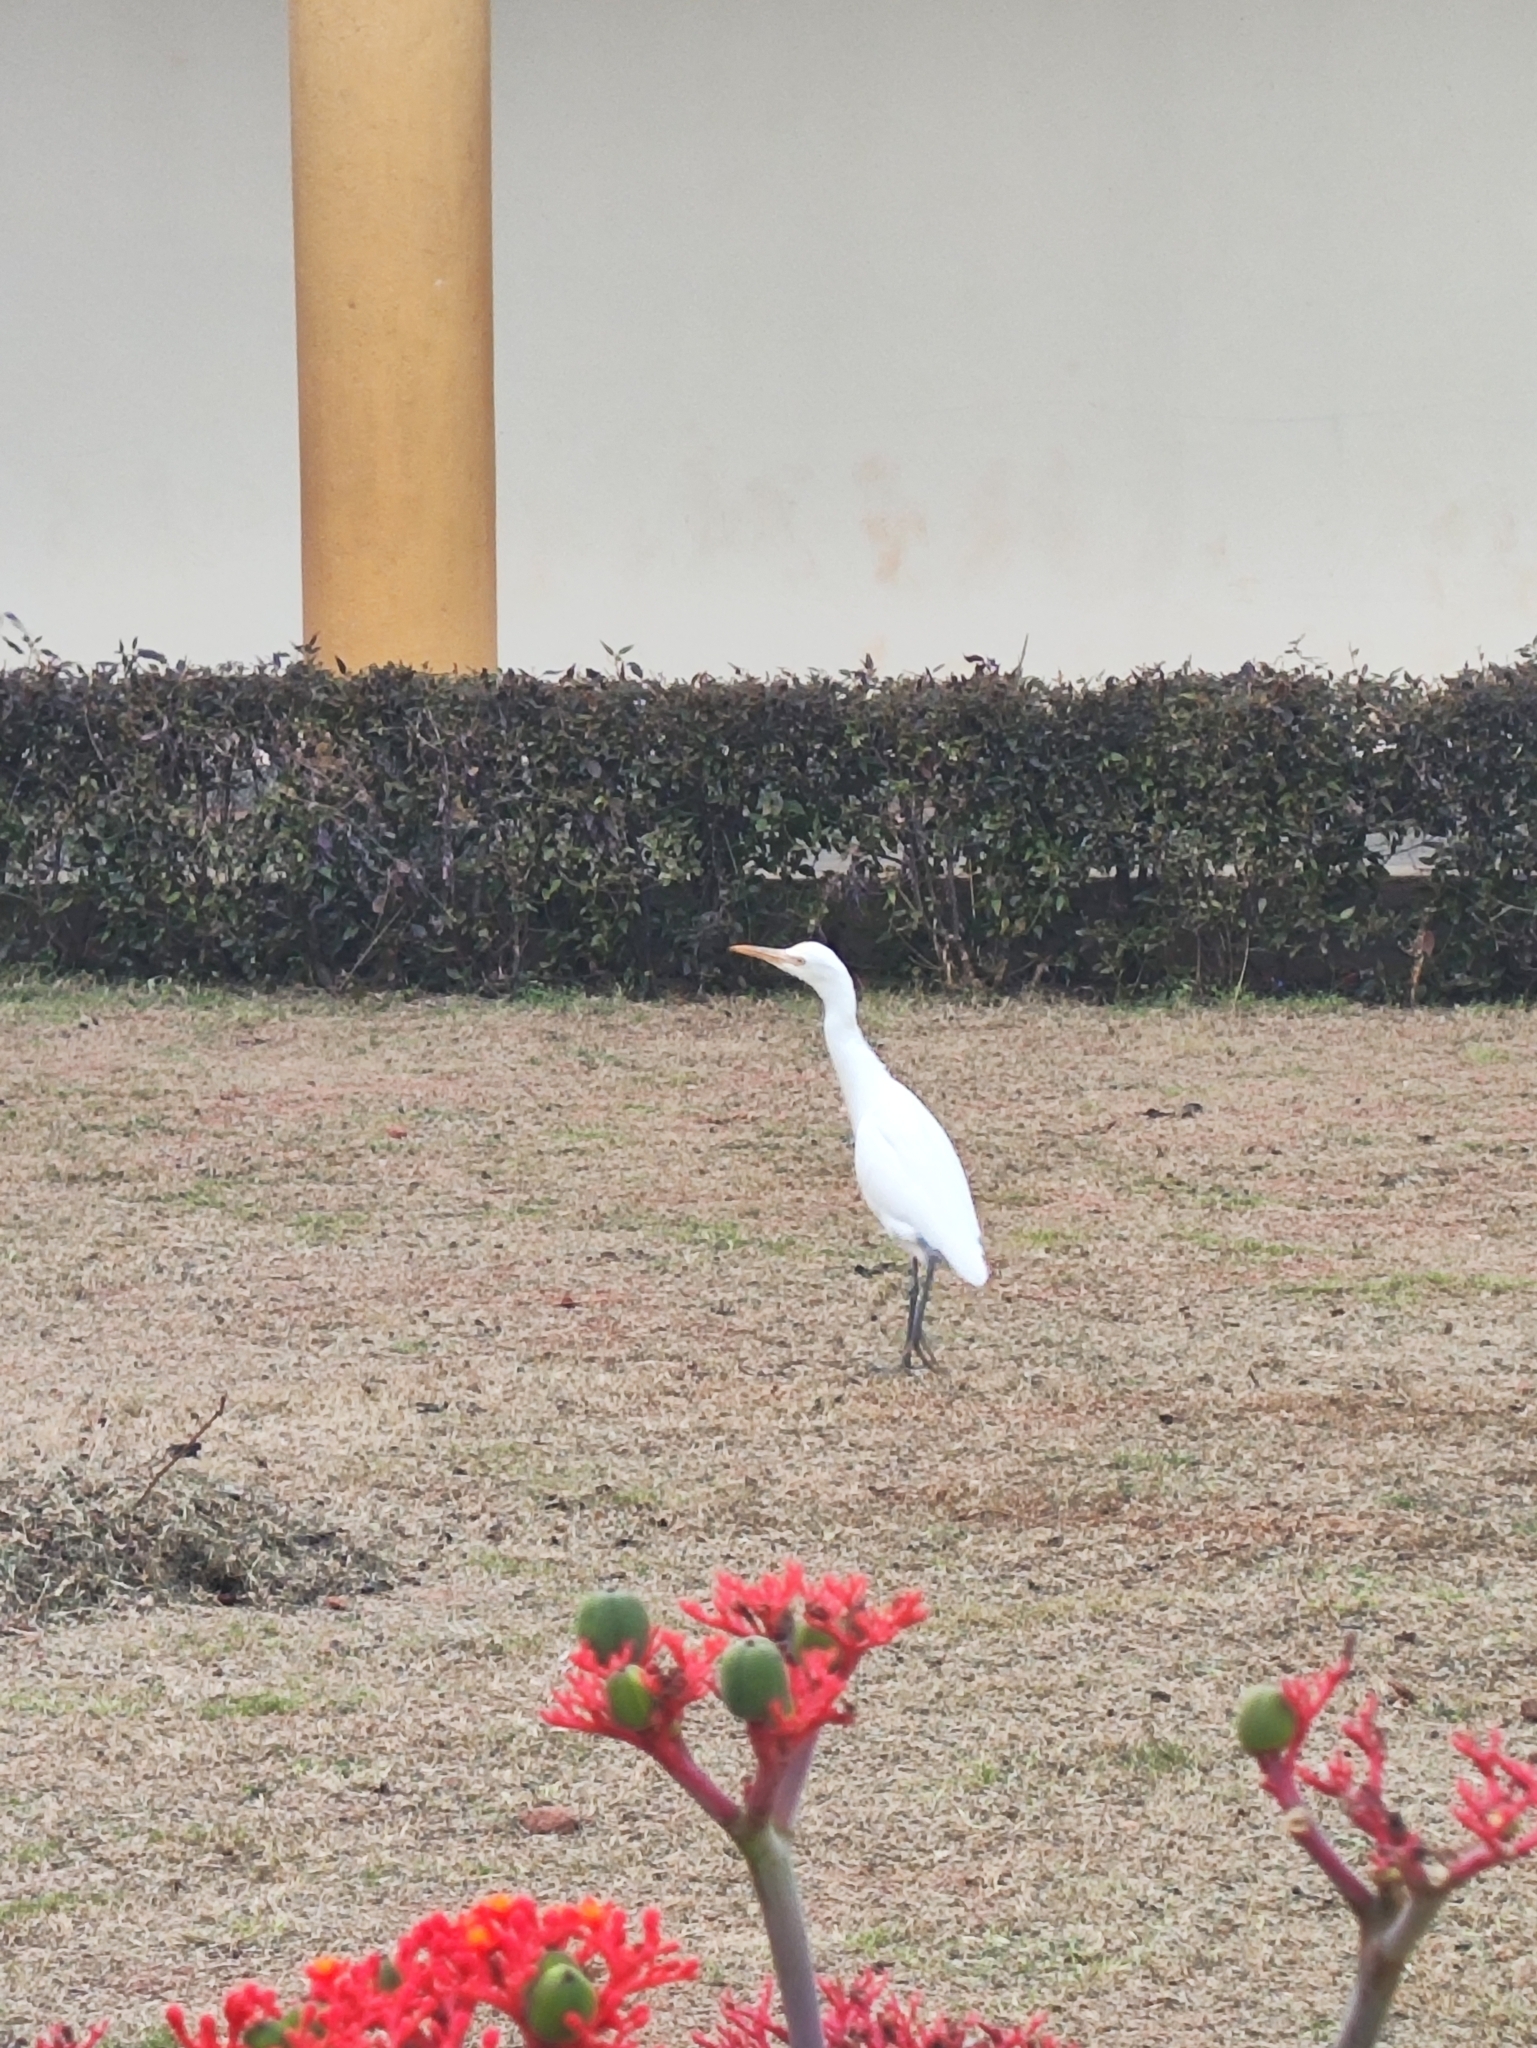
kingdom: Animalia
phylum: Chordata
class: Aves
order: Pelecaniformes
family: Ardeidae
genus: Bubulcus
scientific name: Bubulcus coromandus
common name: Eastern cattle egret
